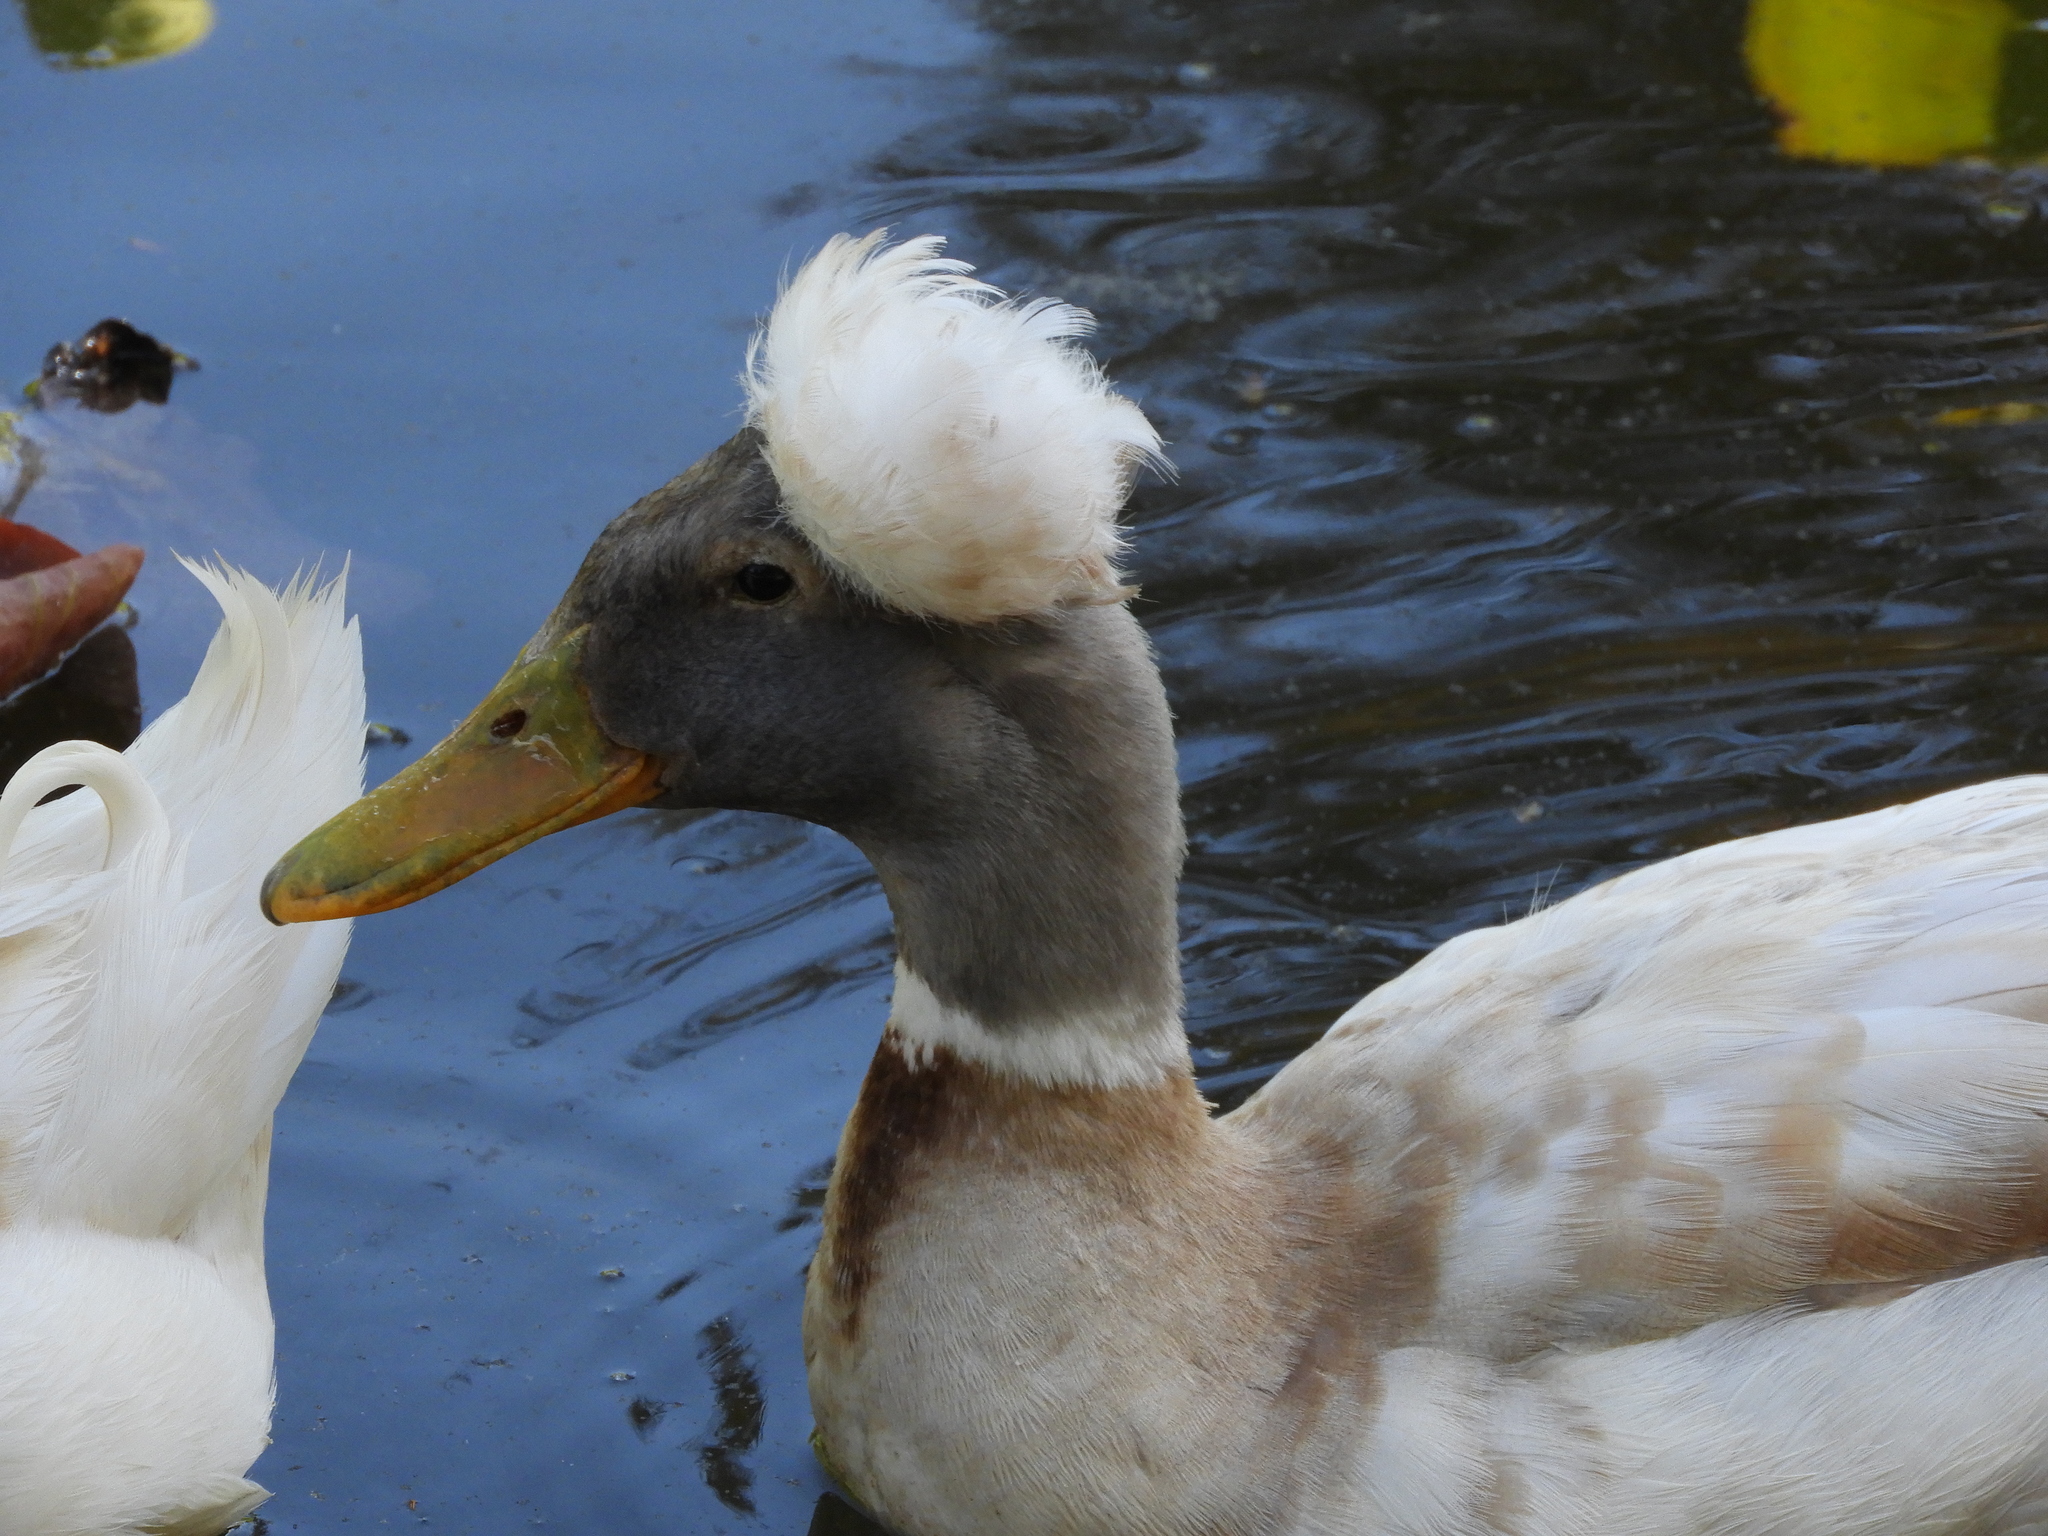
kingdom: Animalia
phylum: Chordata
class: Aves
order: Anseriformes
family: Anatidae
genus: Anas
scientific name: Anas platyrhynchos
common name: Mallard
